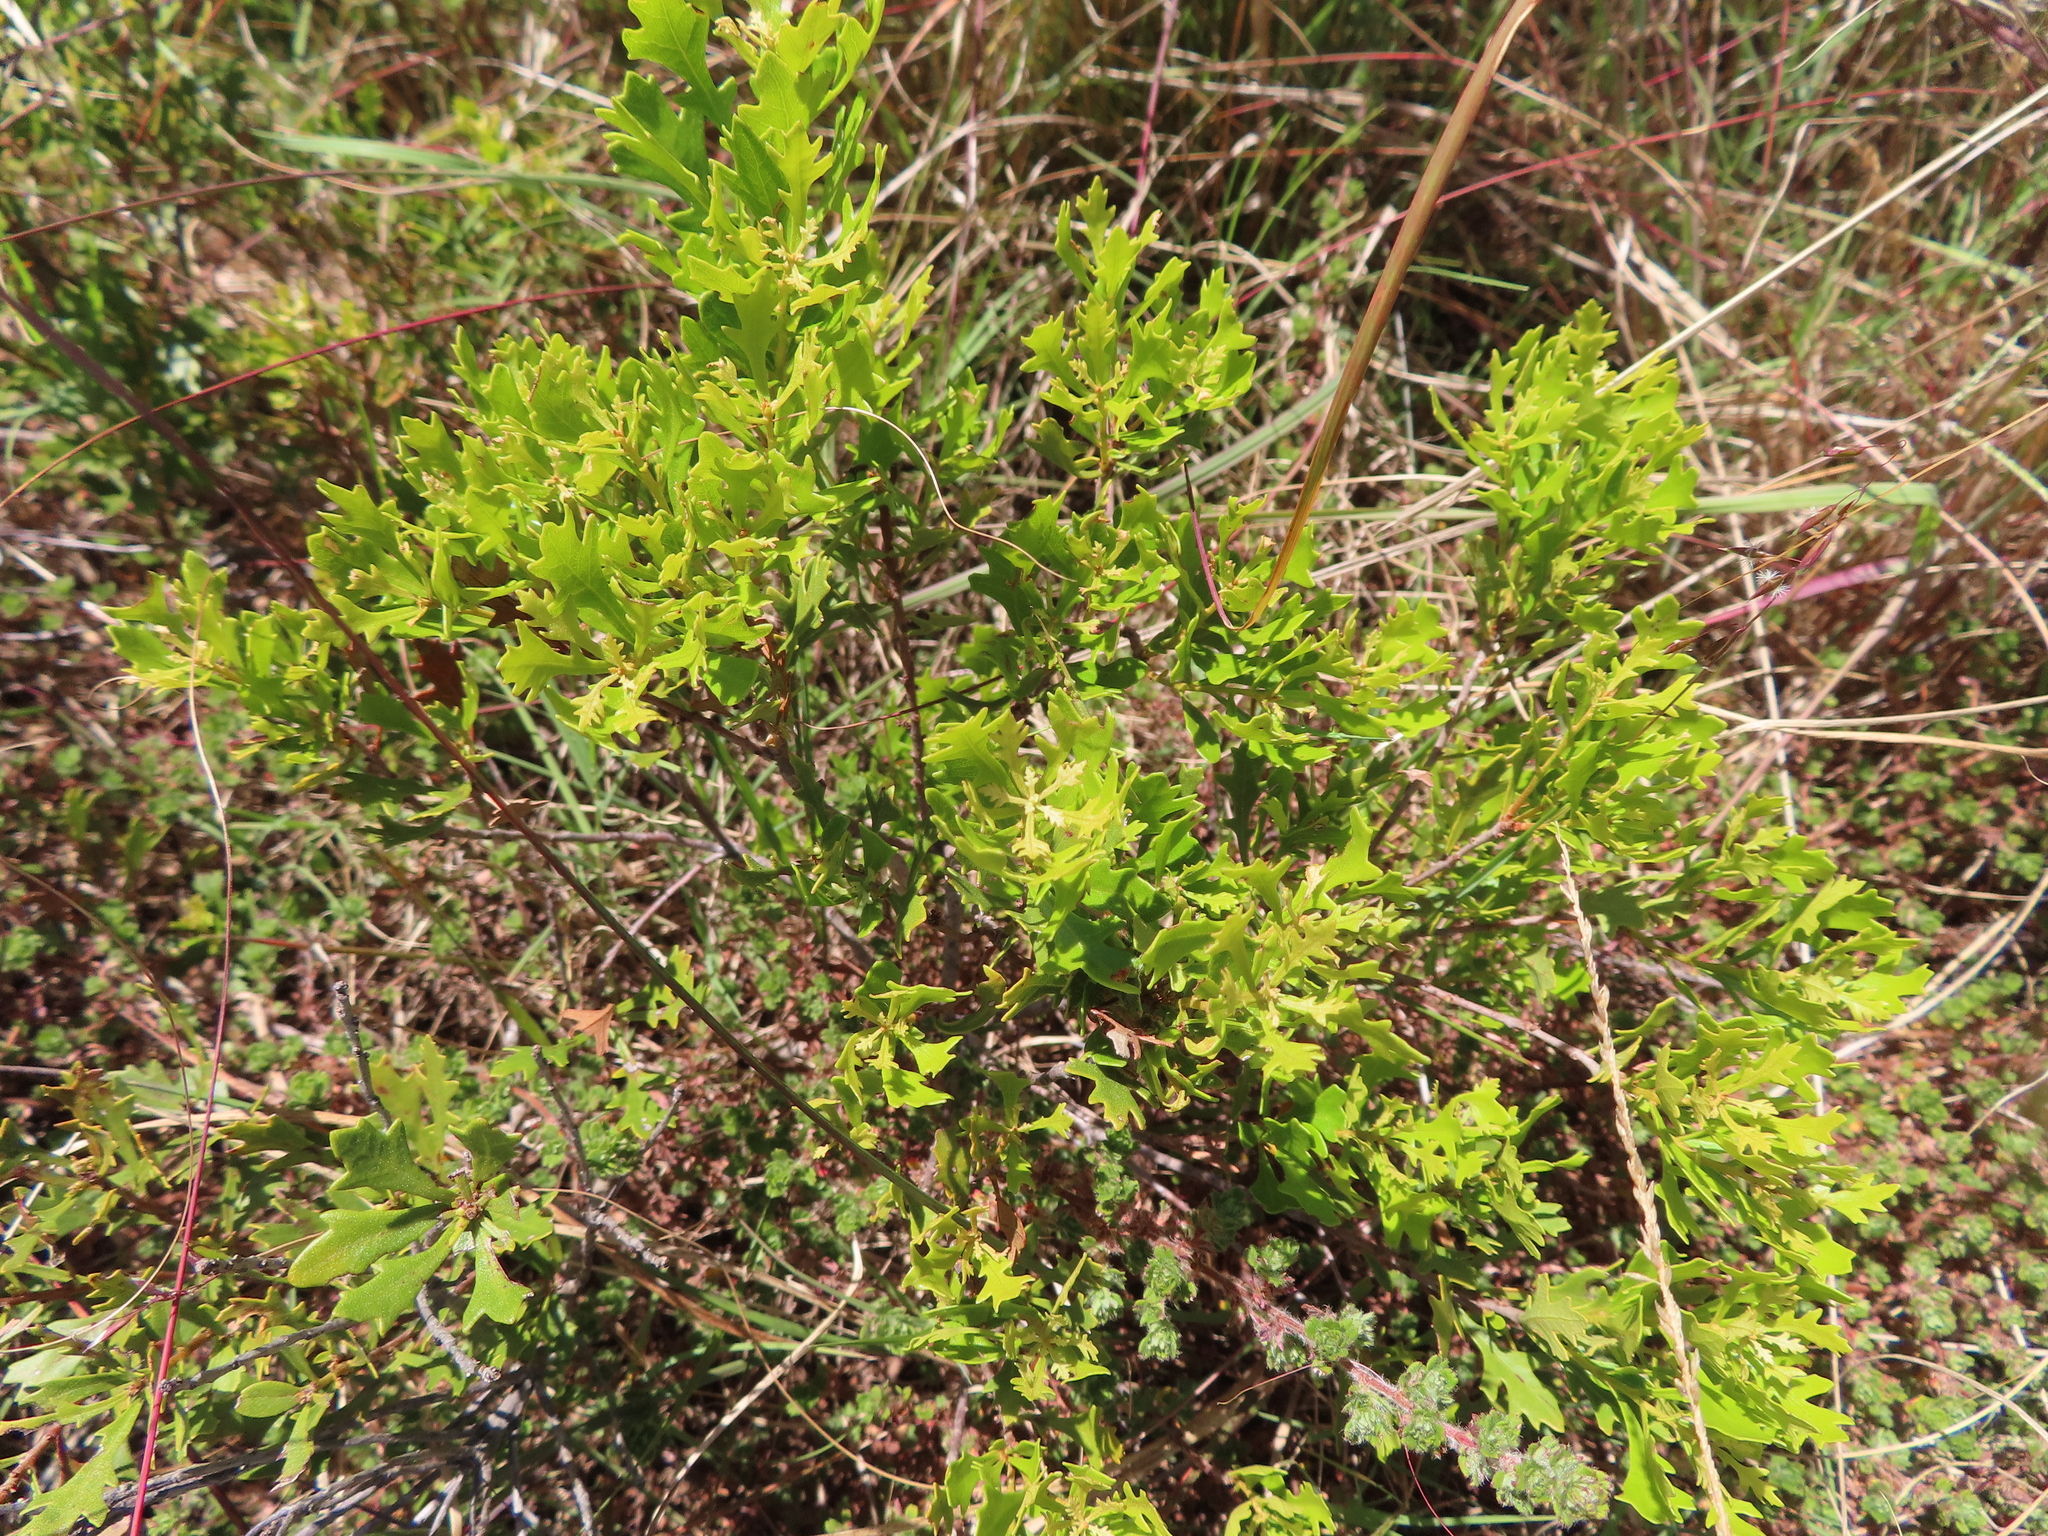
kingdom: Plantae
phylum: Tracheophyta
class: Magnoliopsida
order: Fagales
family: Myricaceae
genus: Morella
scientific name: Morella quercifolia
